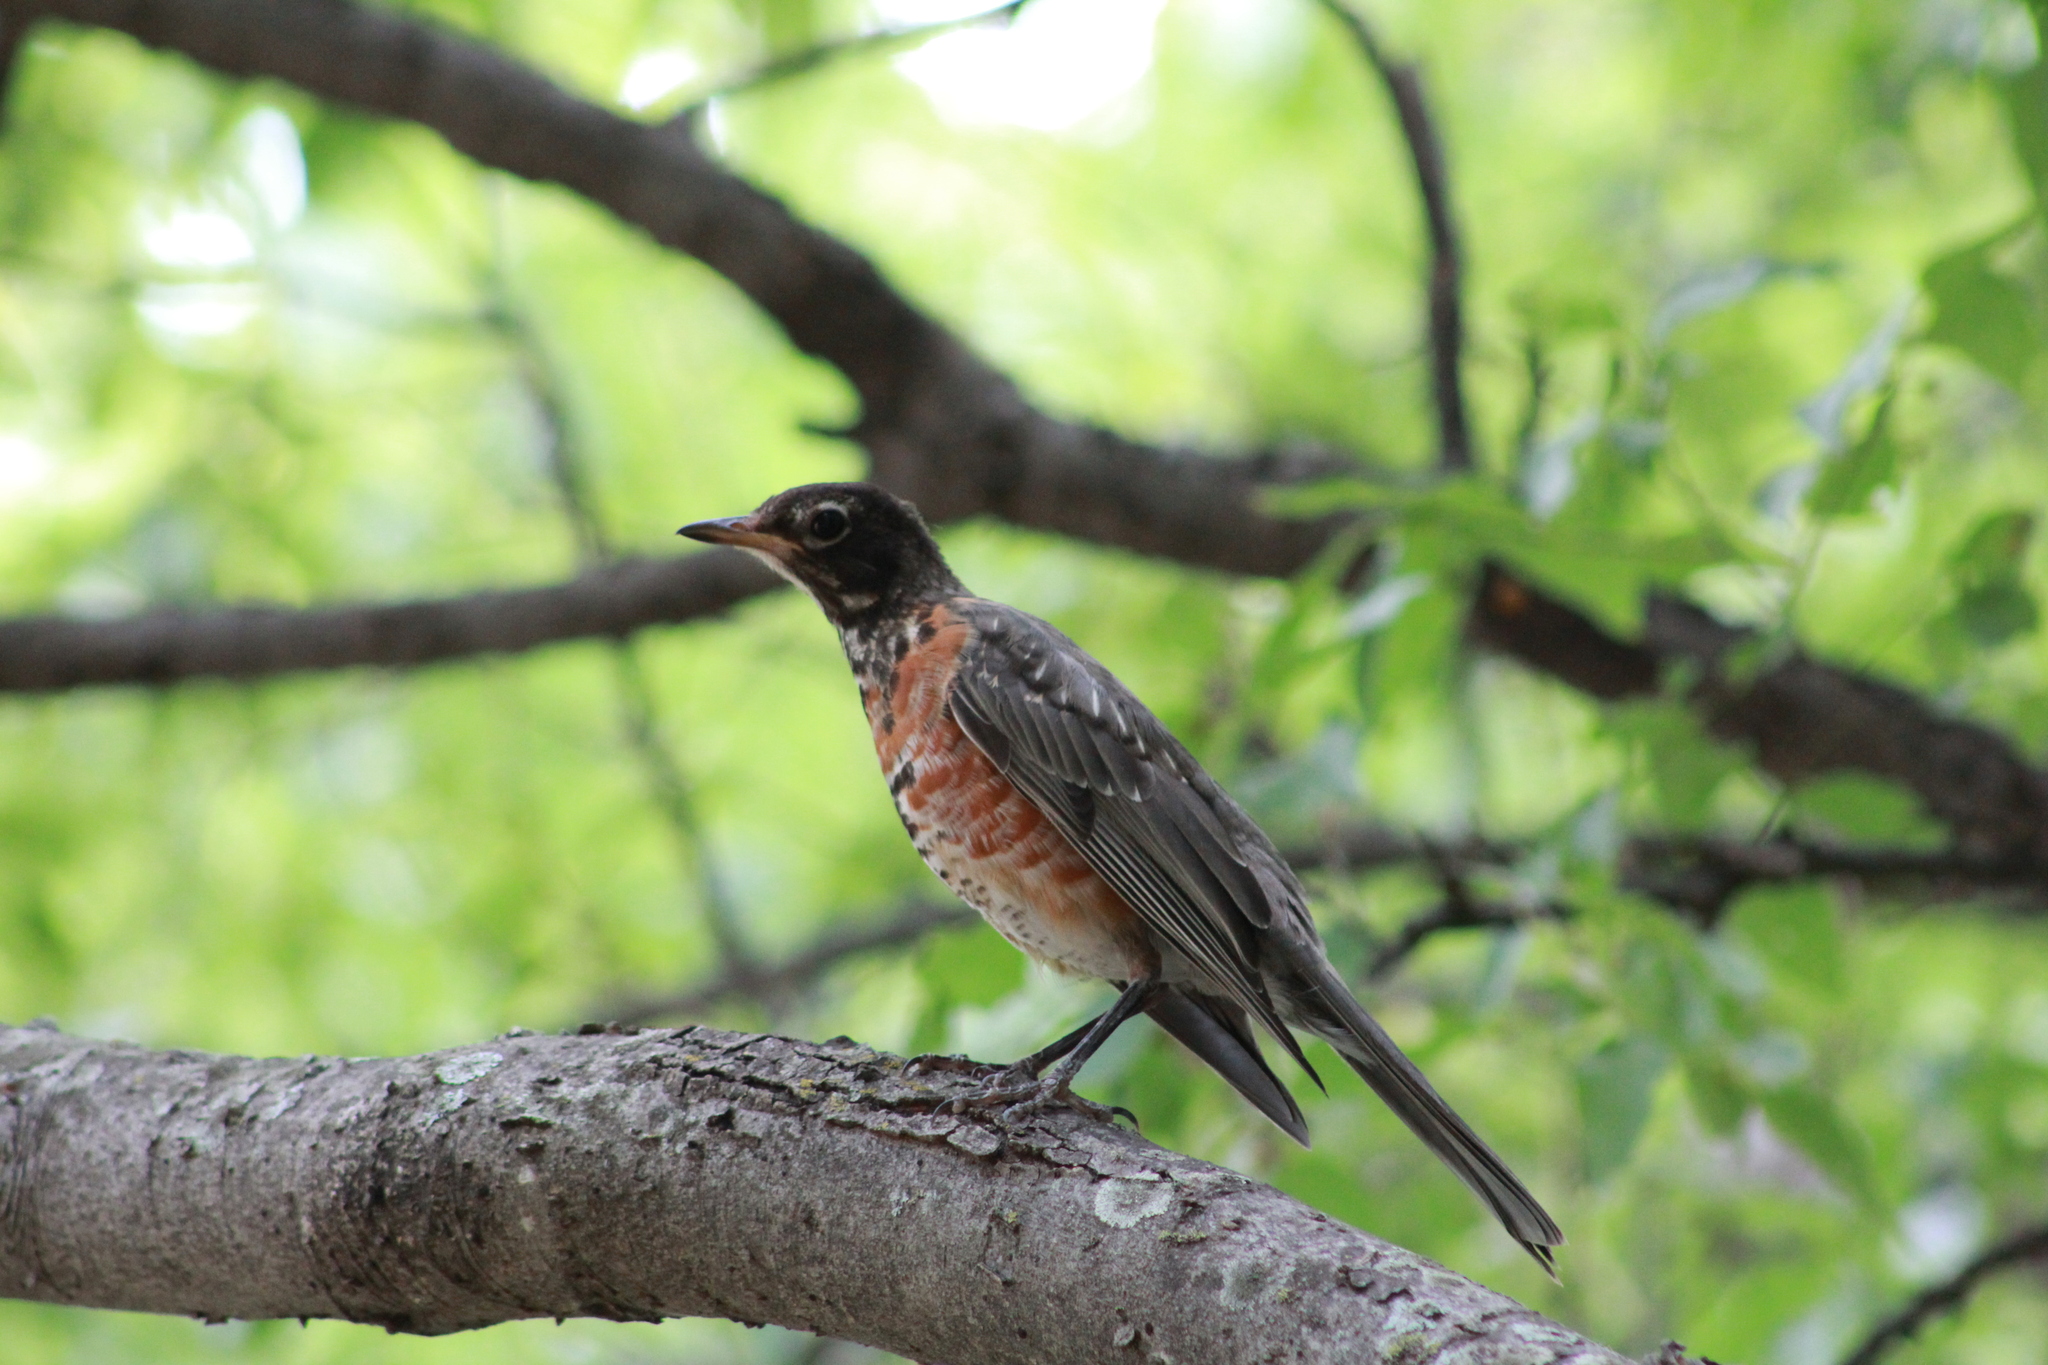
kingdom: Animalia
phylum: Chordata
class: Aves
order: Passeriformes
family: Turdidae
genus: Turdus
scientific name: Turdus migratorius
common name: American robin
